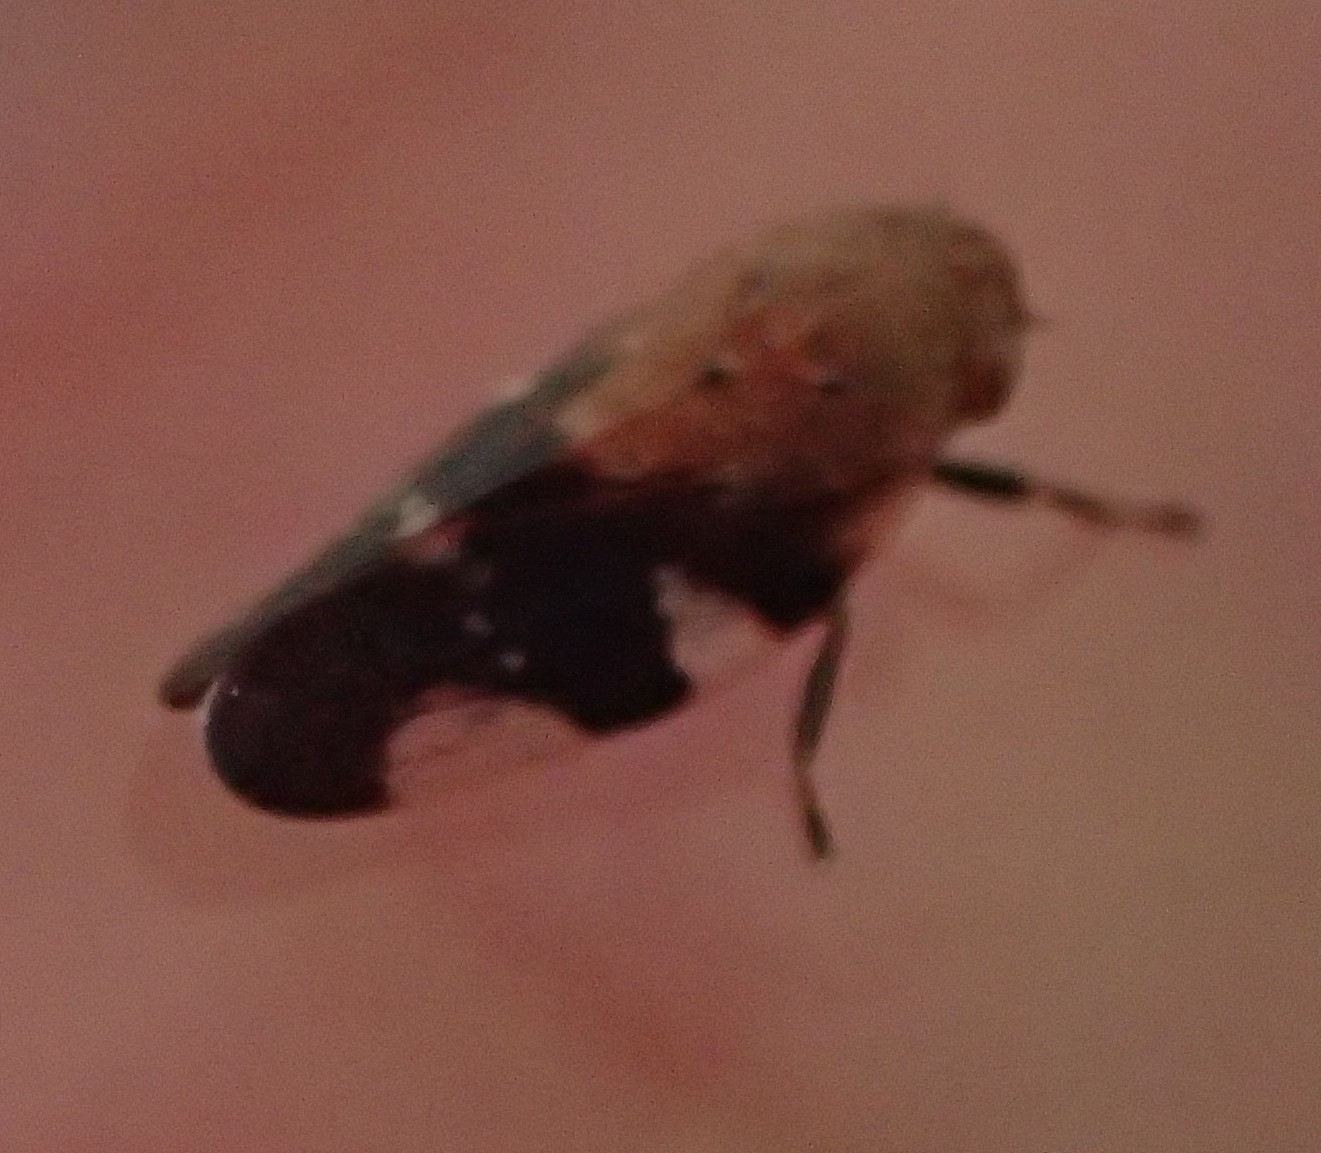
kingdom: Animalia
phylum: Arthropoda
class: Insecta
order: Hemiptera
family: Cercopidae
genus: Anyllis
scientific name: Anyllis leiala
